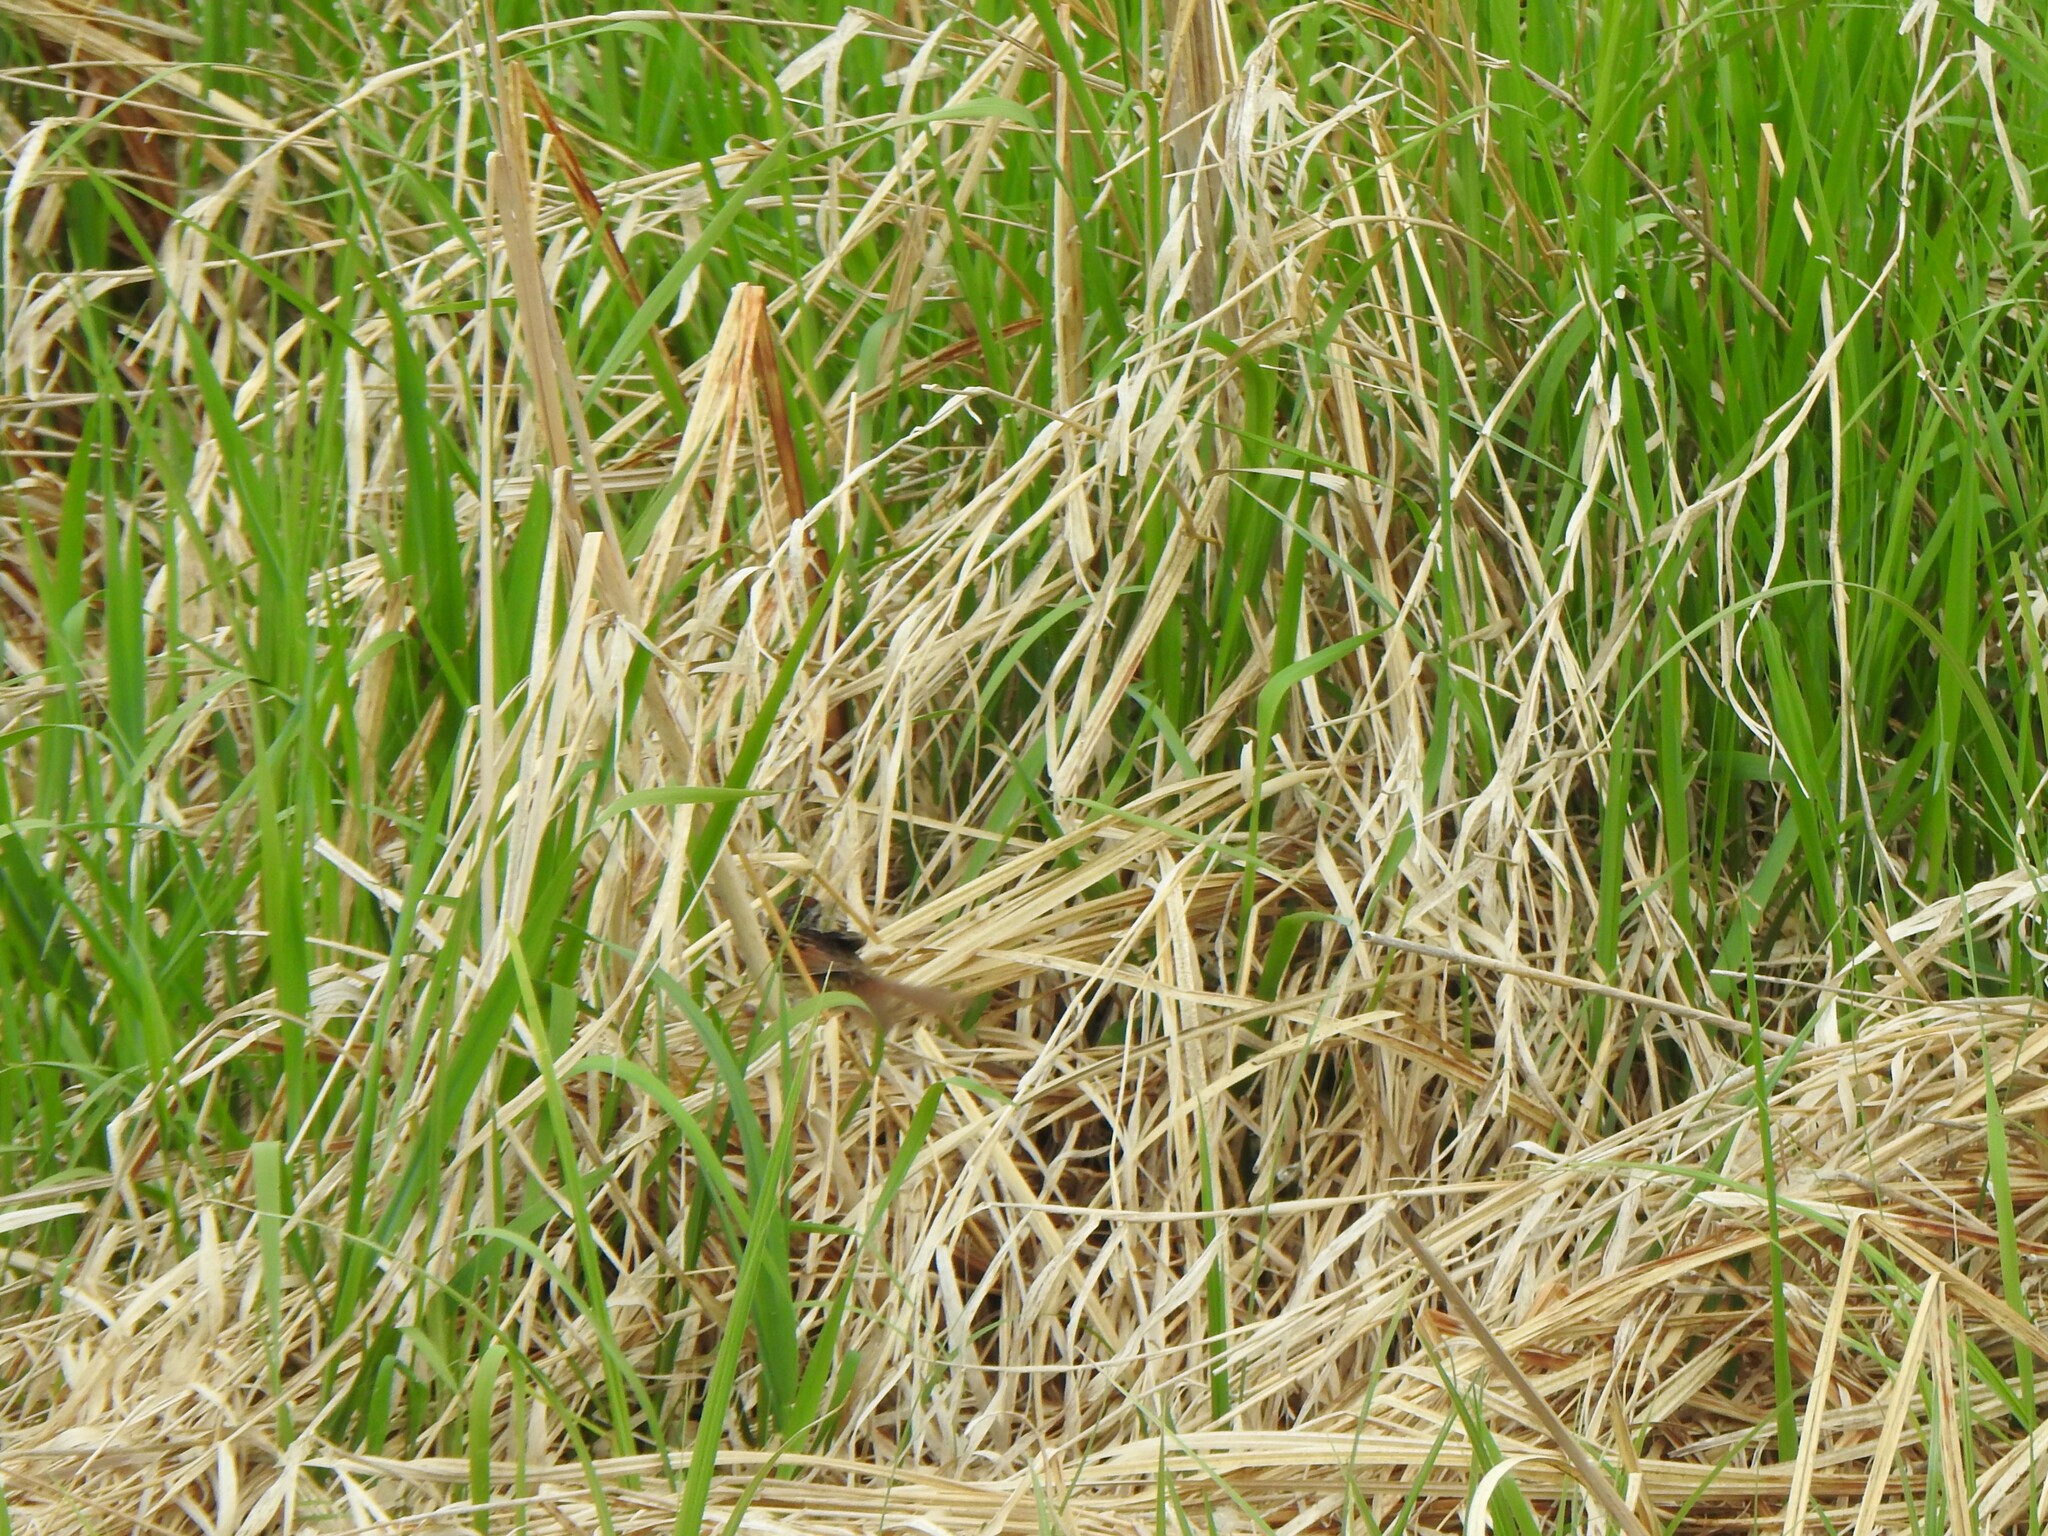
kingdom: Animalia
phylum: Chordata
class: Aves
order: Passeriformes
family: Passerellidae
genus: Melospiza
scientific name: Melospiza georgiana
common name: Swamp sparrow
